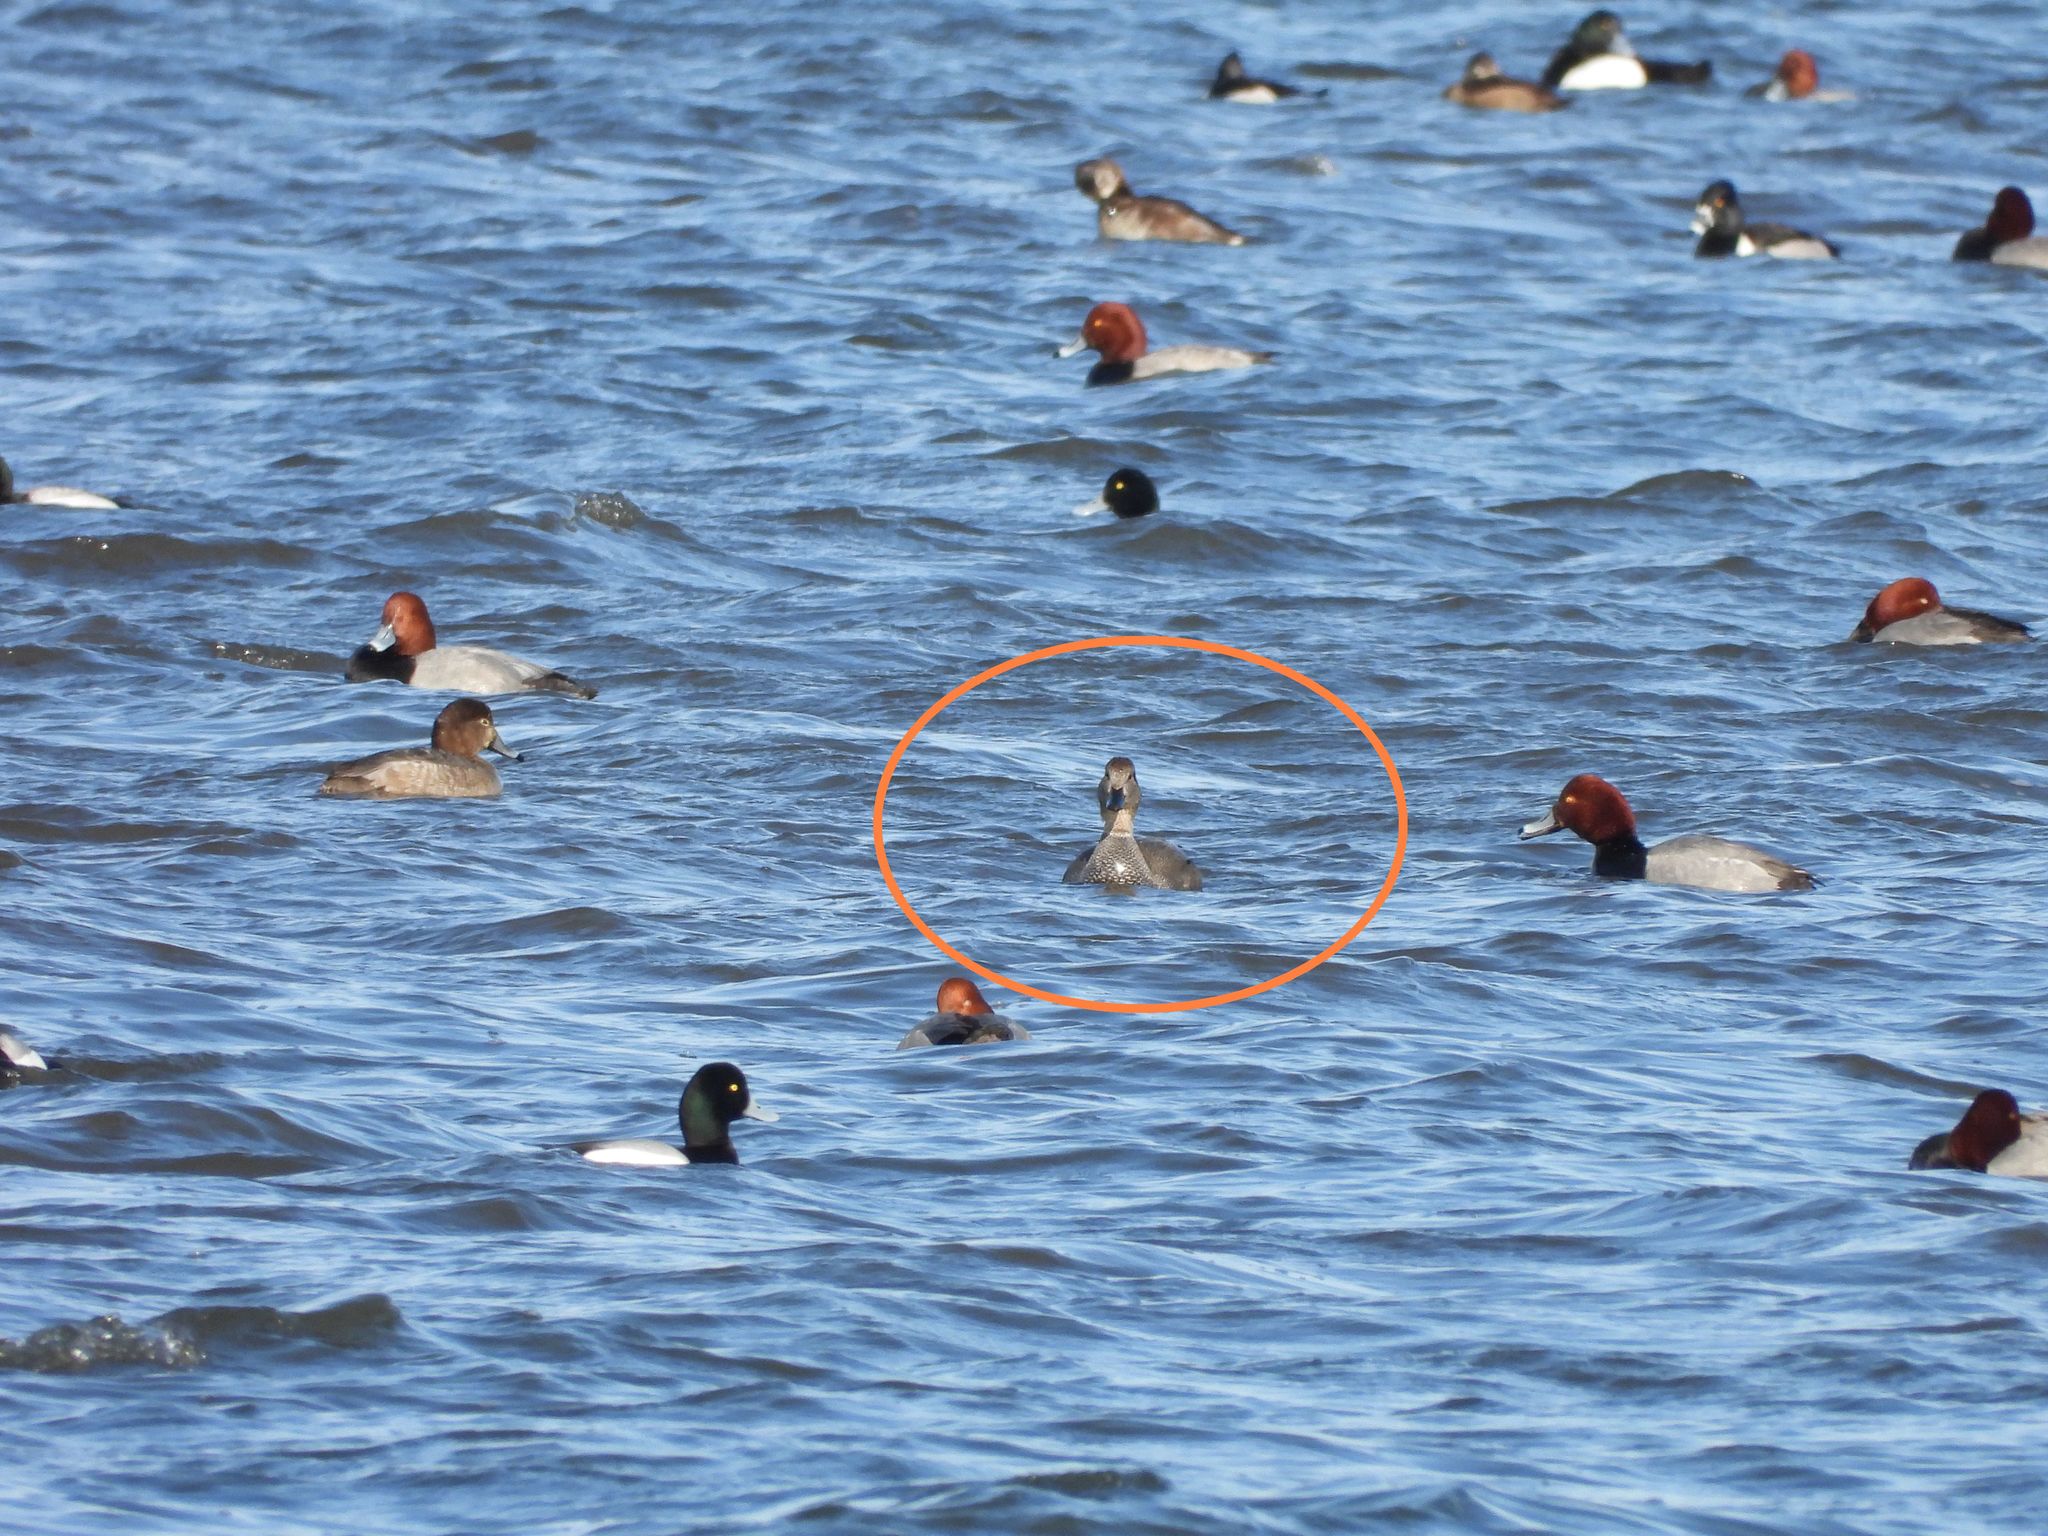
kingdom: Animalia
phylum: Chordata
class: Aves
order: Anseriformes
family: Anatidae
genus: Mareca
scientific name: Mareca strepera
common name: Gadwall
